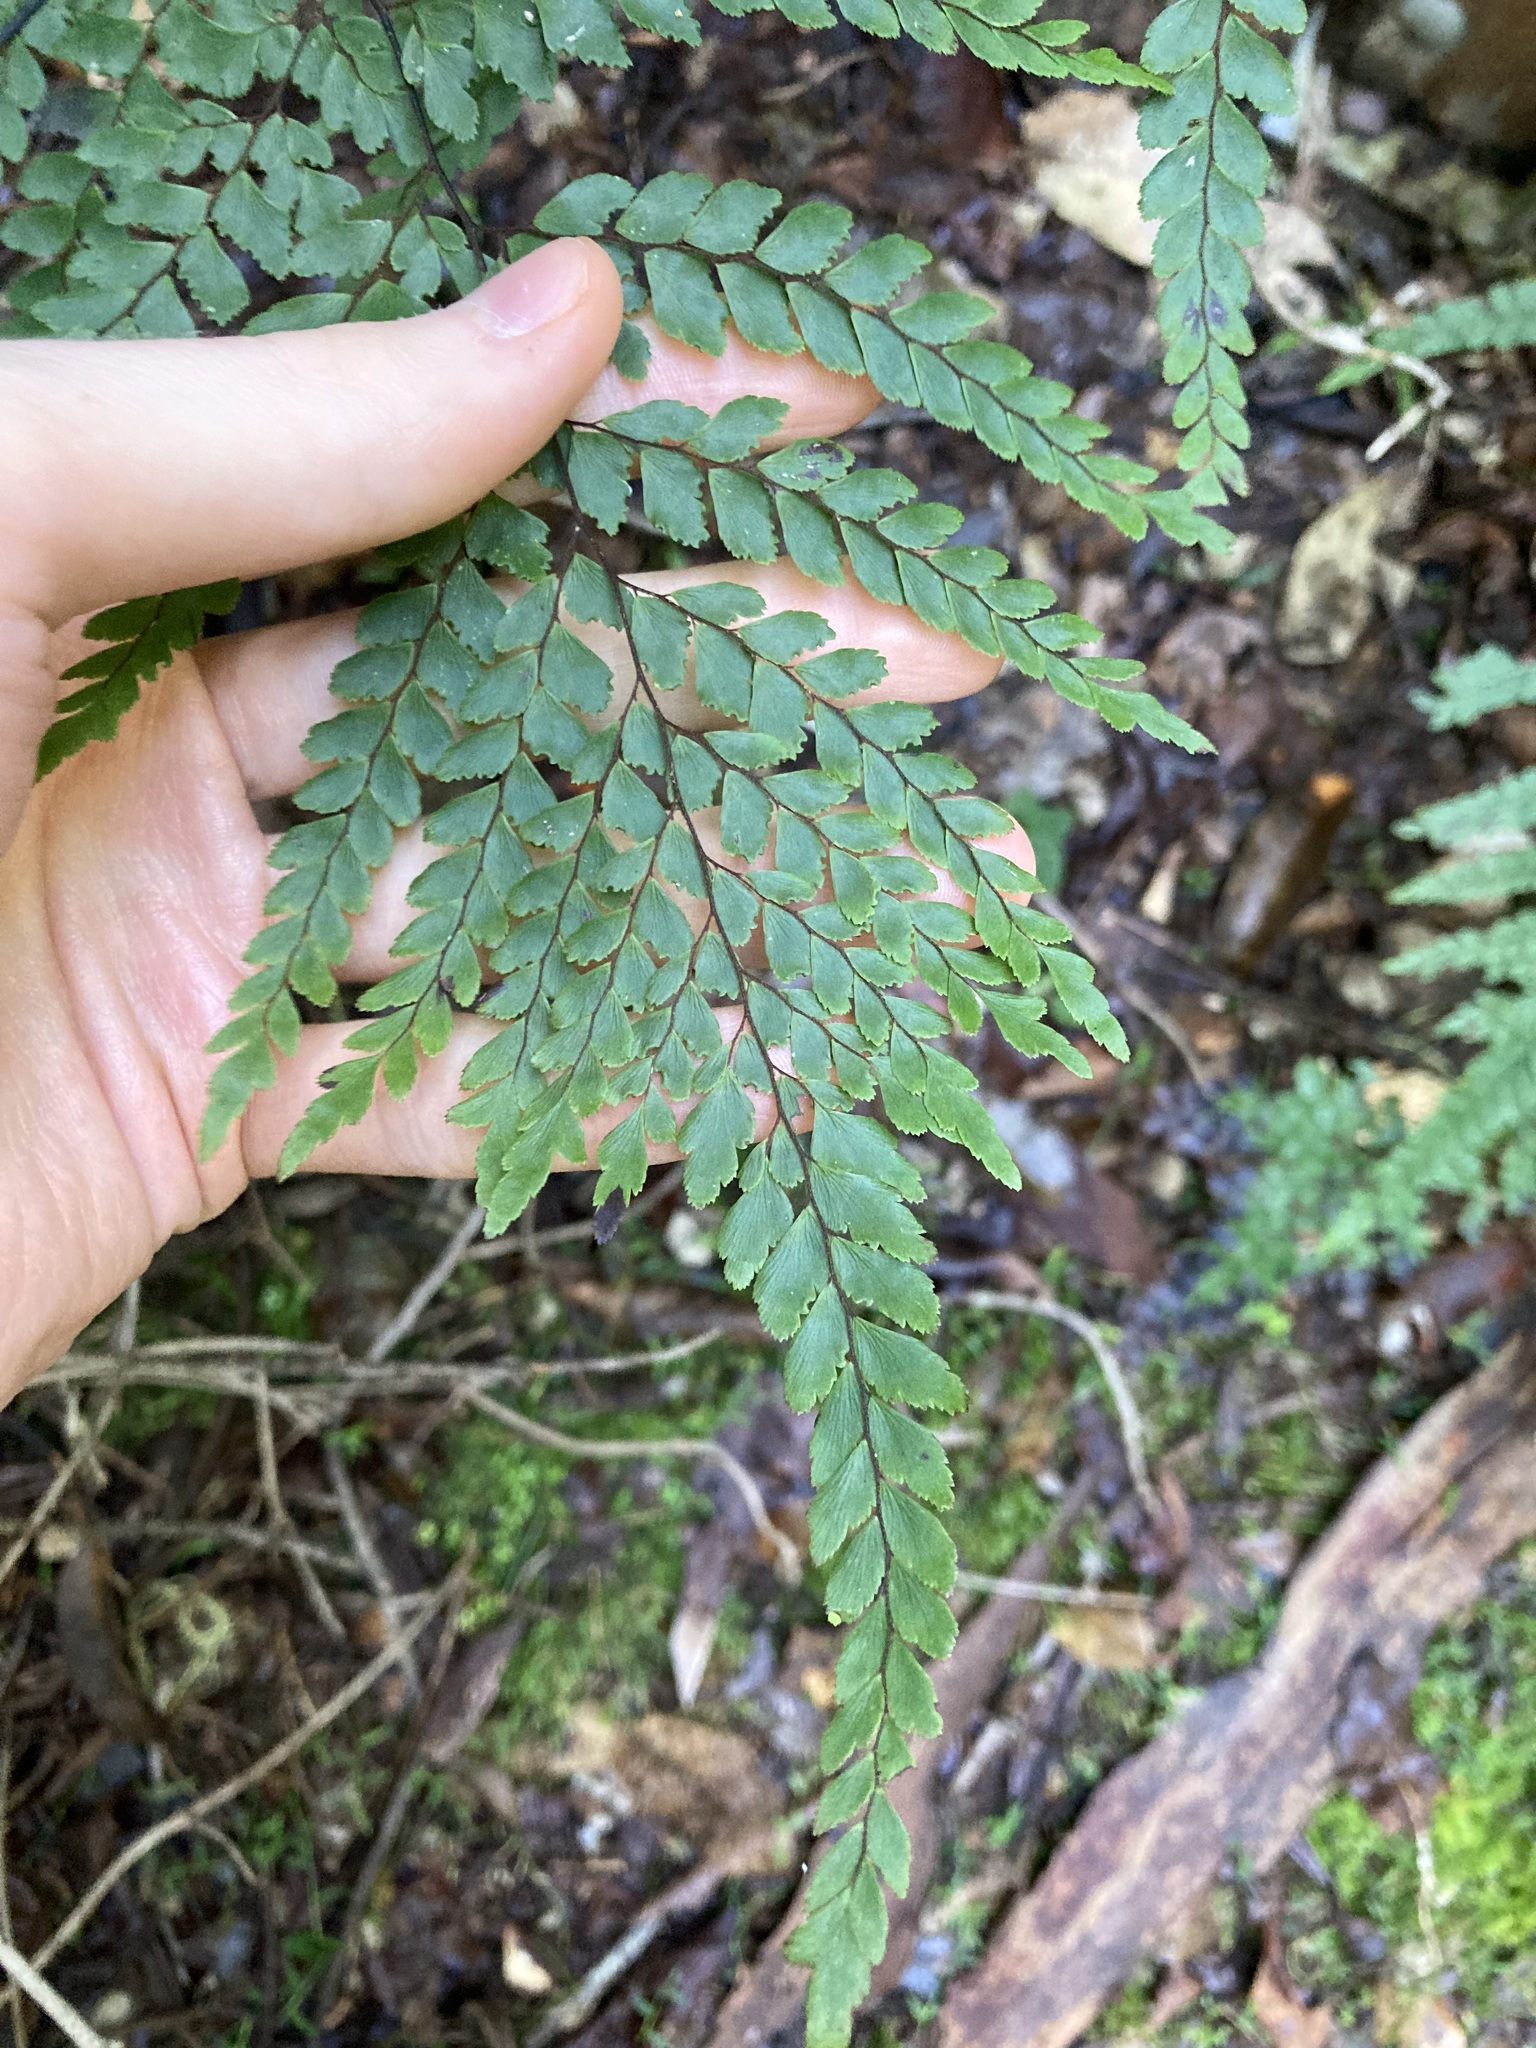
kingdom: Plantae
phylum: Tracheophyta
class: Polypodiopsida
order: Polypodiales
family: Pteridaceae
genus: Adiantum
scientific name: Adiantum formosum
